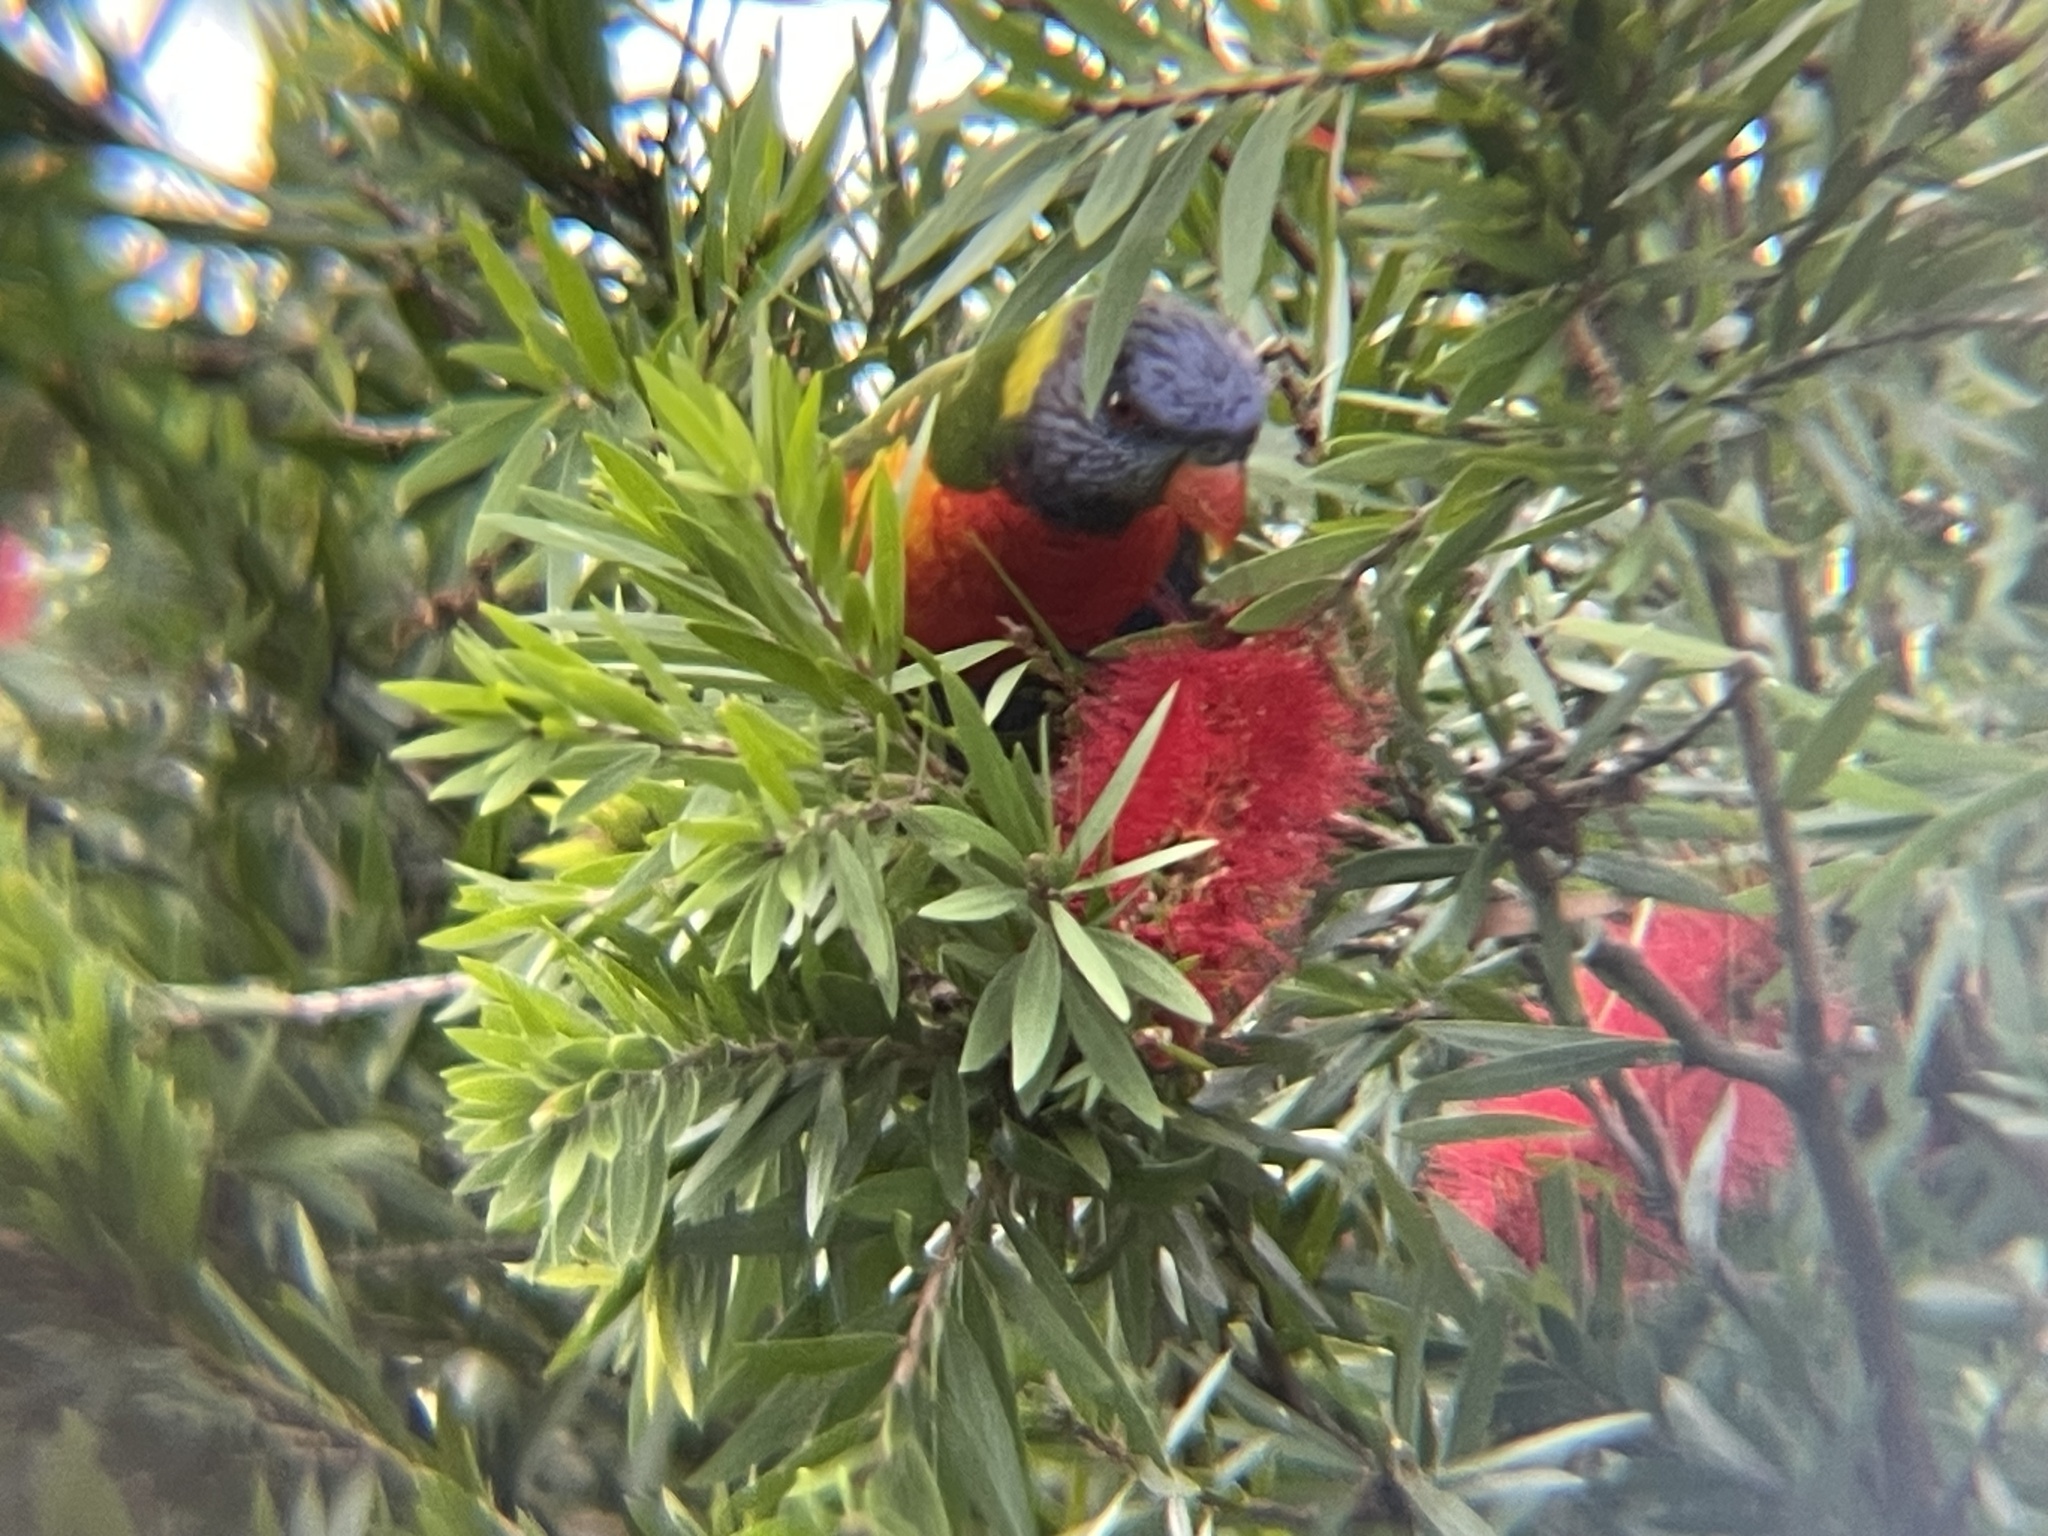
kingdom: Animalia
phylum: Chordata
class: Aves
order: Psittaciformes
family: Psittacidae
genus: Trichoglossus
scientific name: Trichoglossus haematodus
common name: Coconut lorikeet
